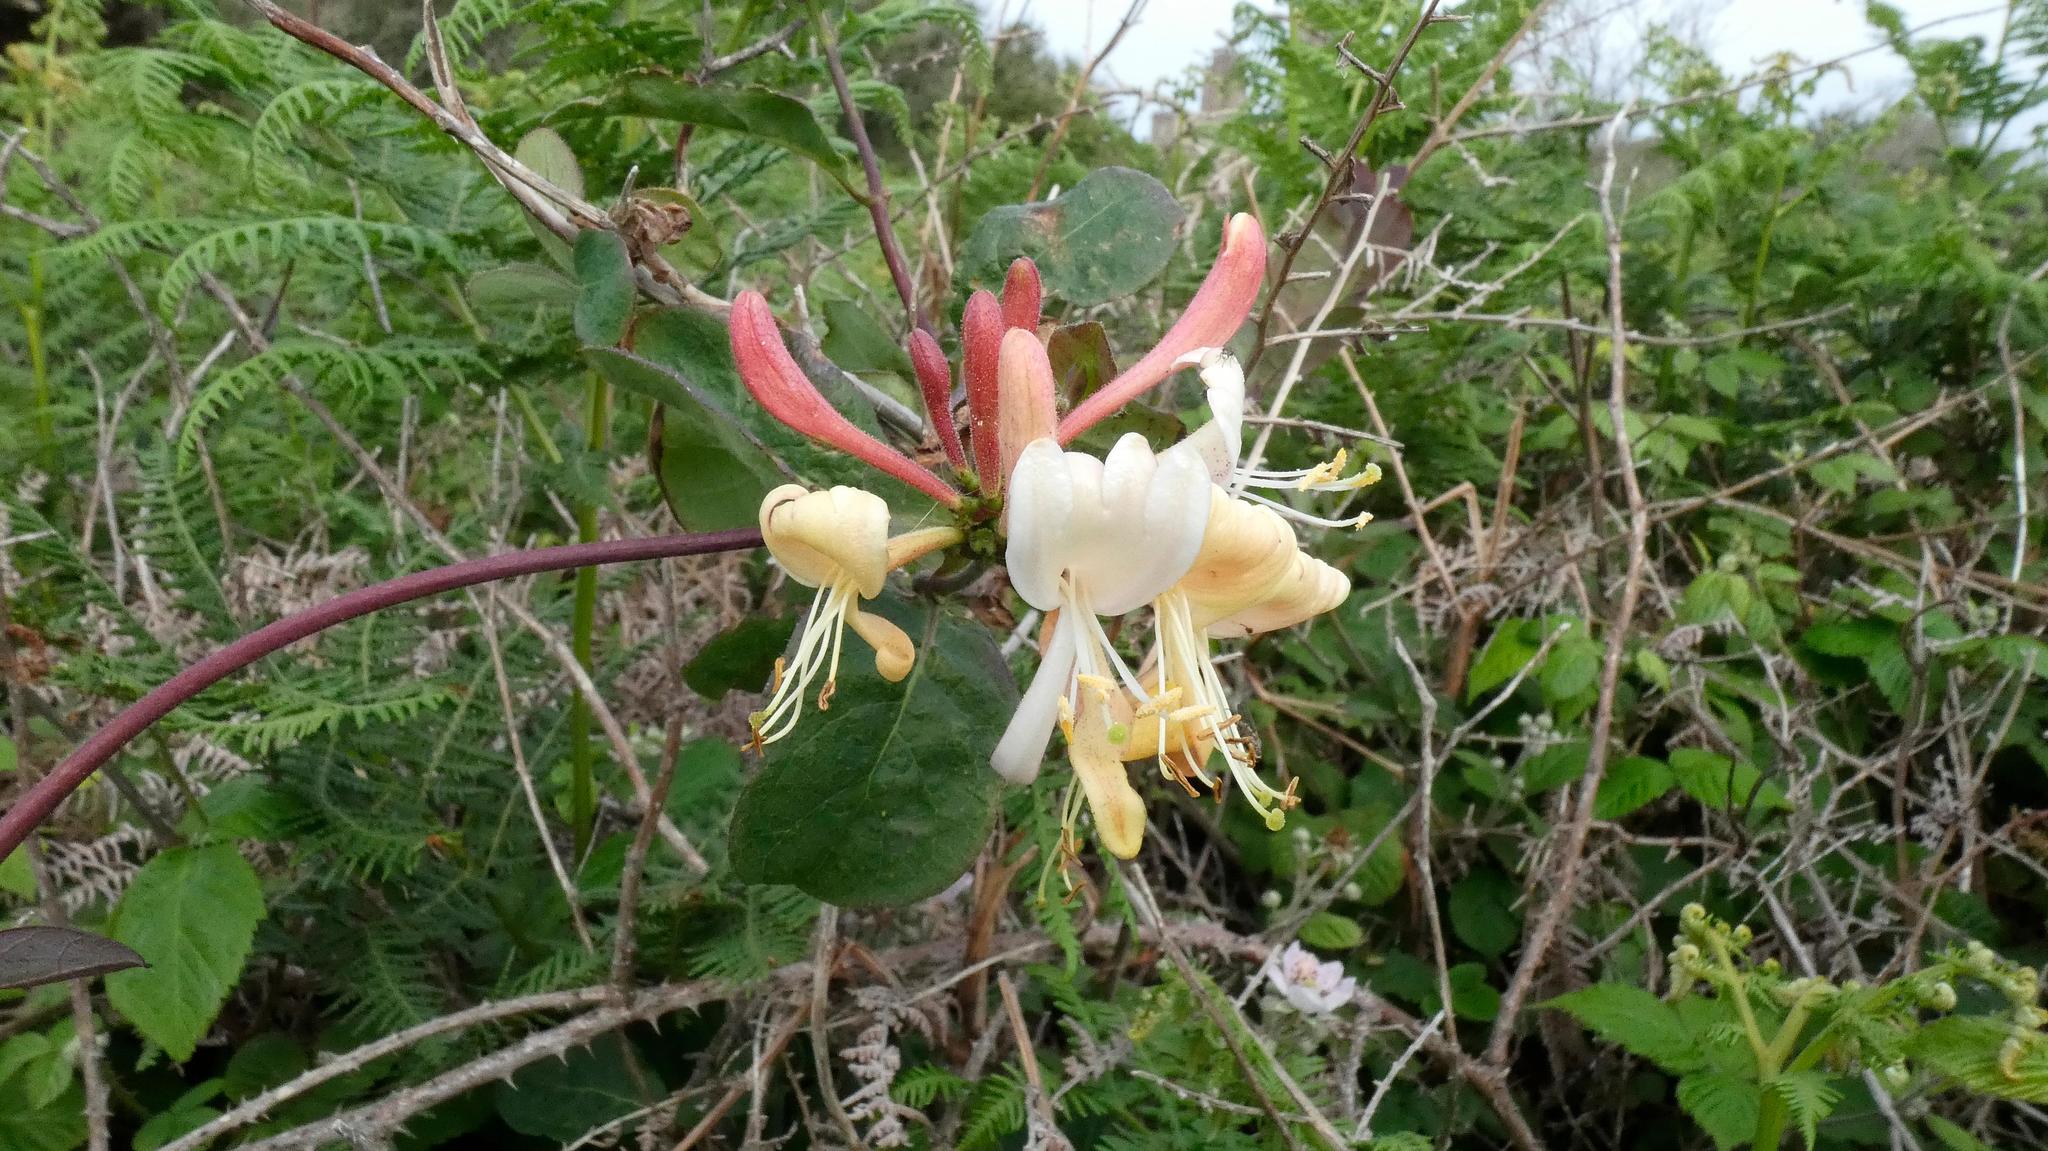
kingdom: Plantae
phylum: Tracheophyta
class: Magnoliopsida
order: Dipsacales
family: Caprifoliaceae
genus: Lonicera
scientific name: Lonicera periclymenum
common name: European honeysuckle
